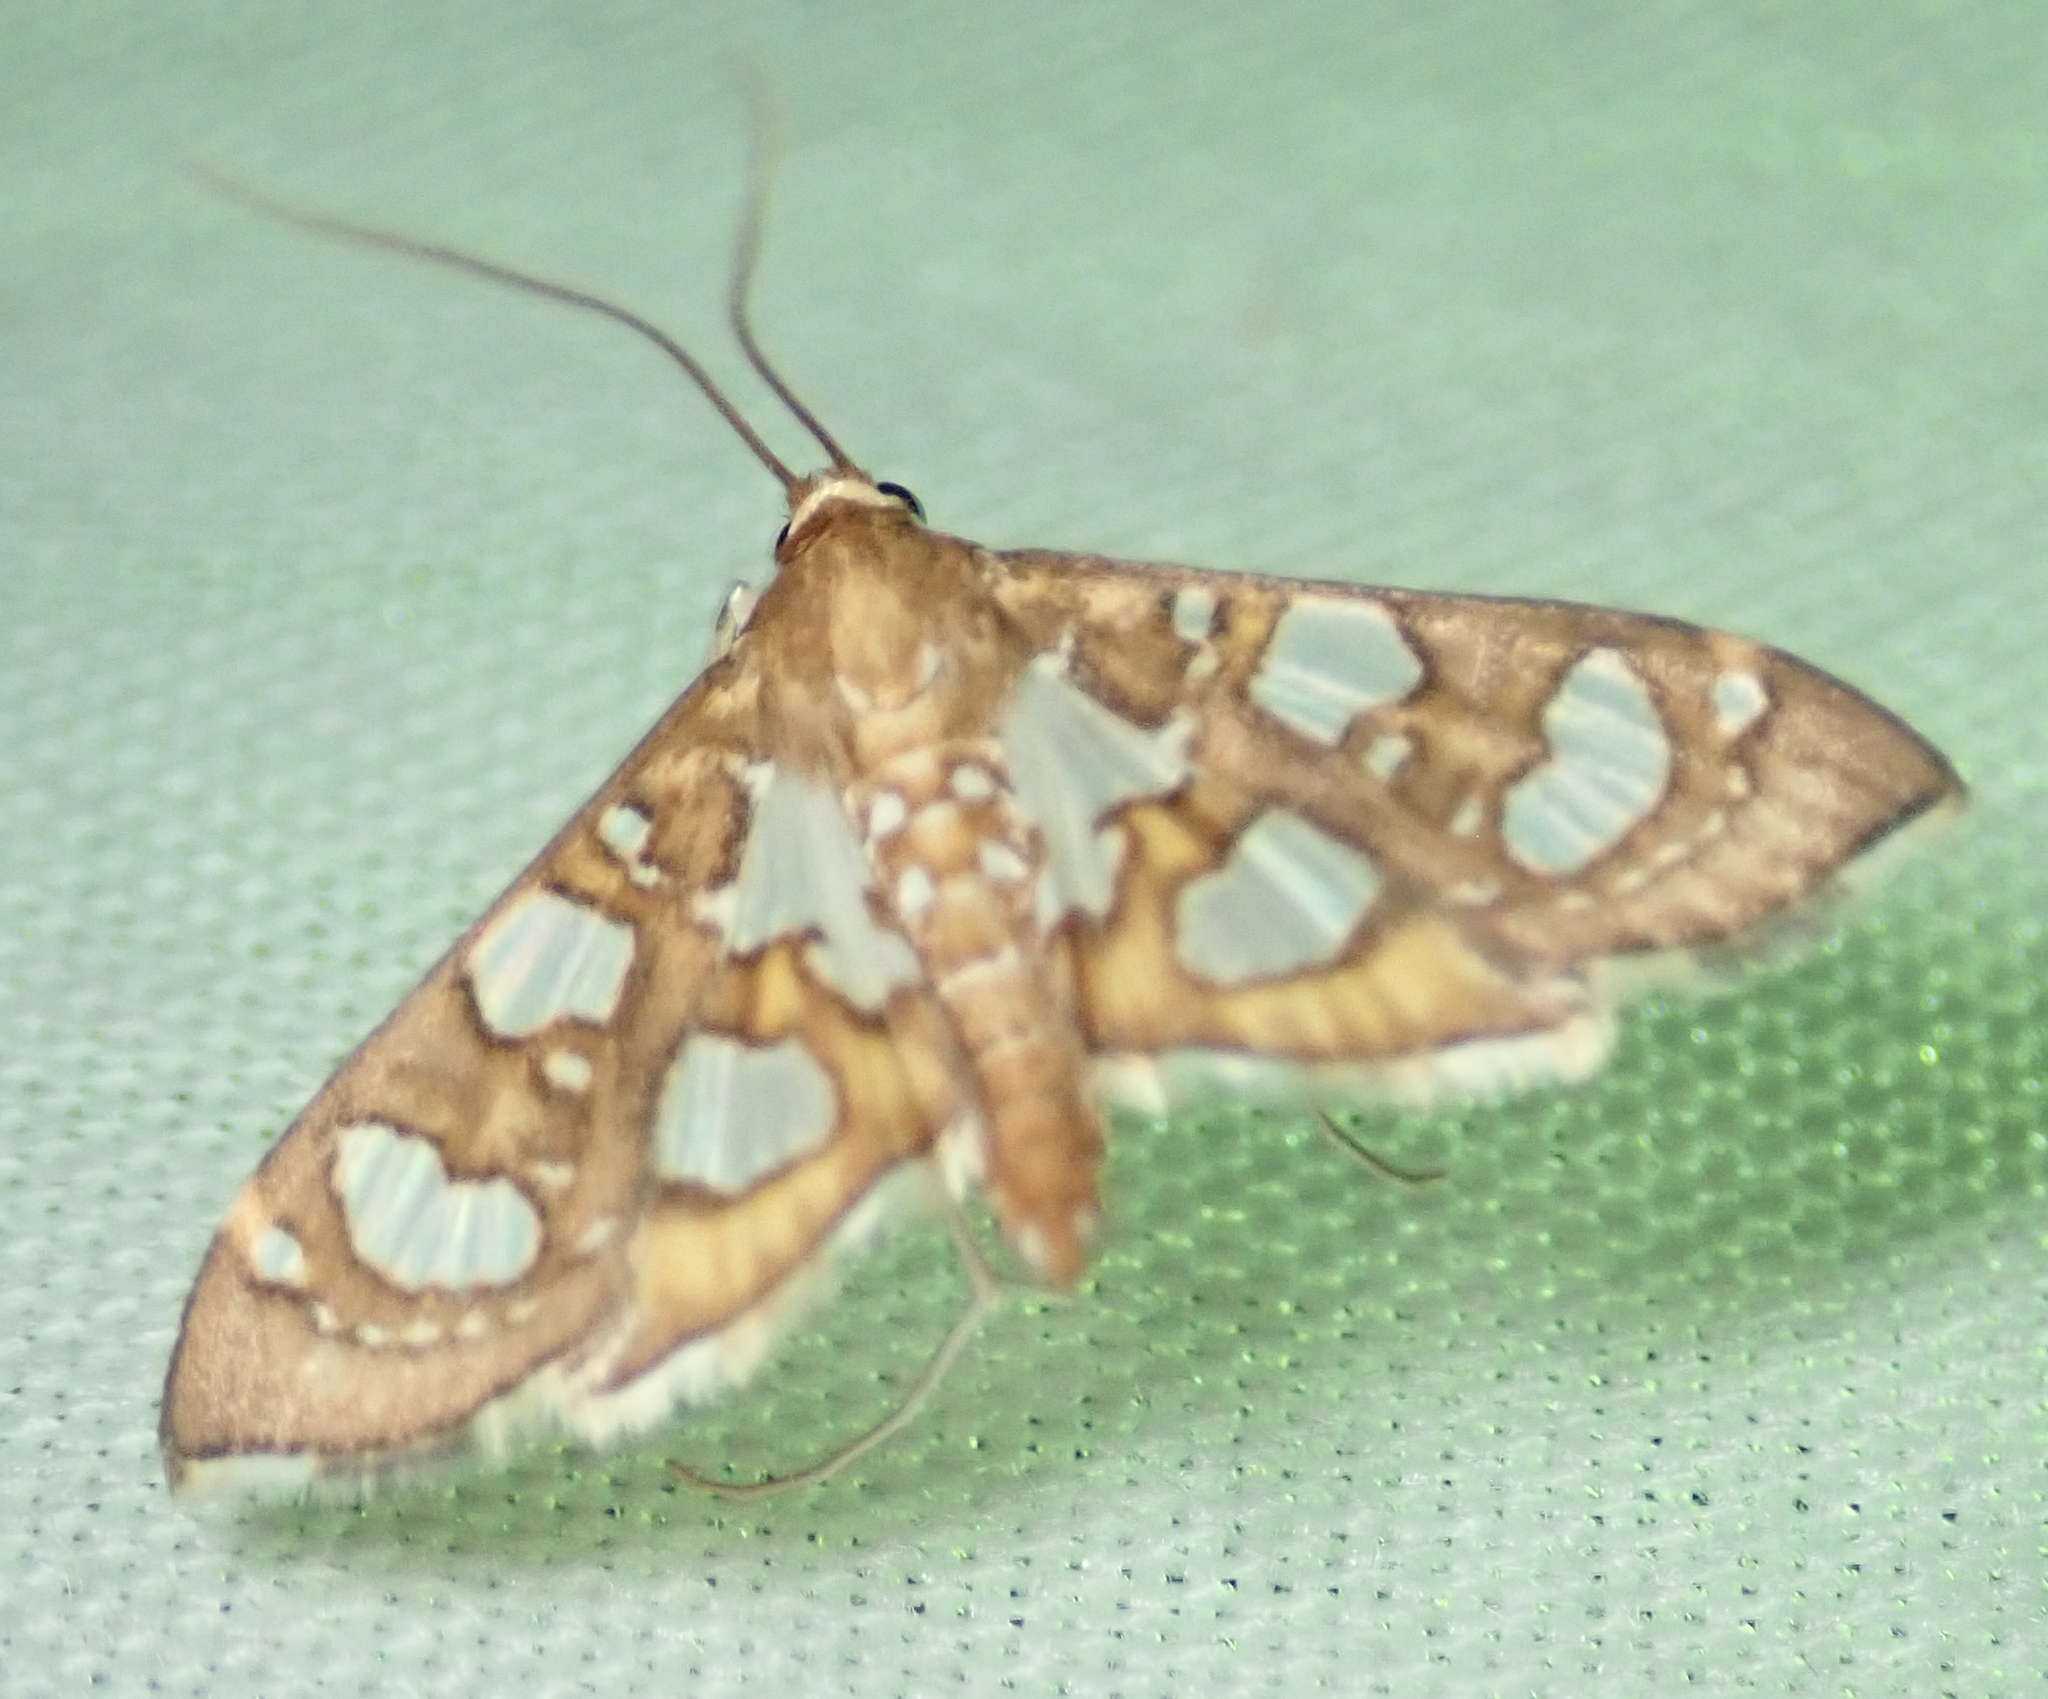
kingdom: Animalia
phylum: Arthropoda
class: Insecta
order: Lepidoptera
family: Crambidae
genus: Glyphodella
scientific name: Glyphodella flavibrunnea
